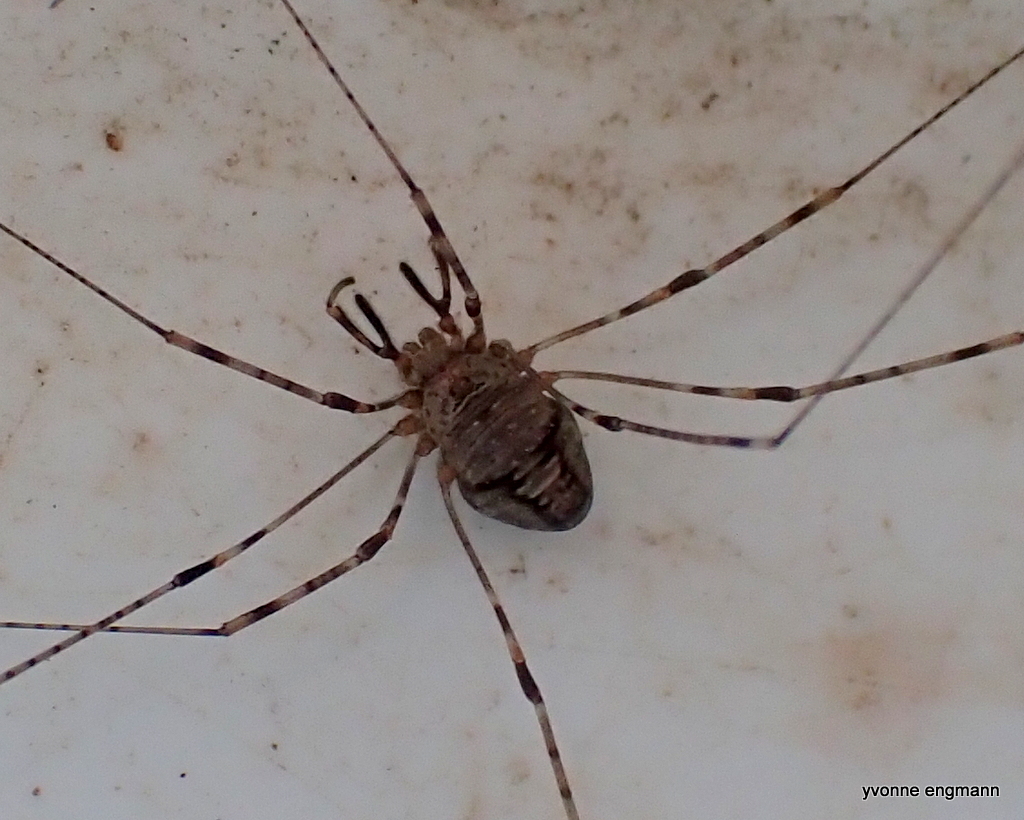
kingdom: Animalia
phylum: Arthropoda
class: Arachnida
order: Opiliones
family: Phalangiidae
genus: Dicranopalpus
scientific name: Dicranopalpus ramosus
